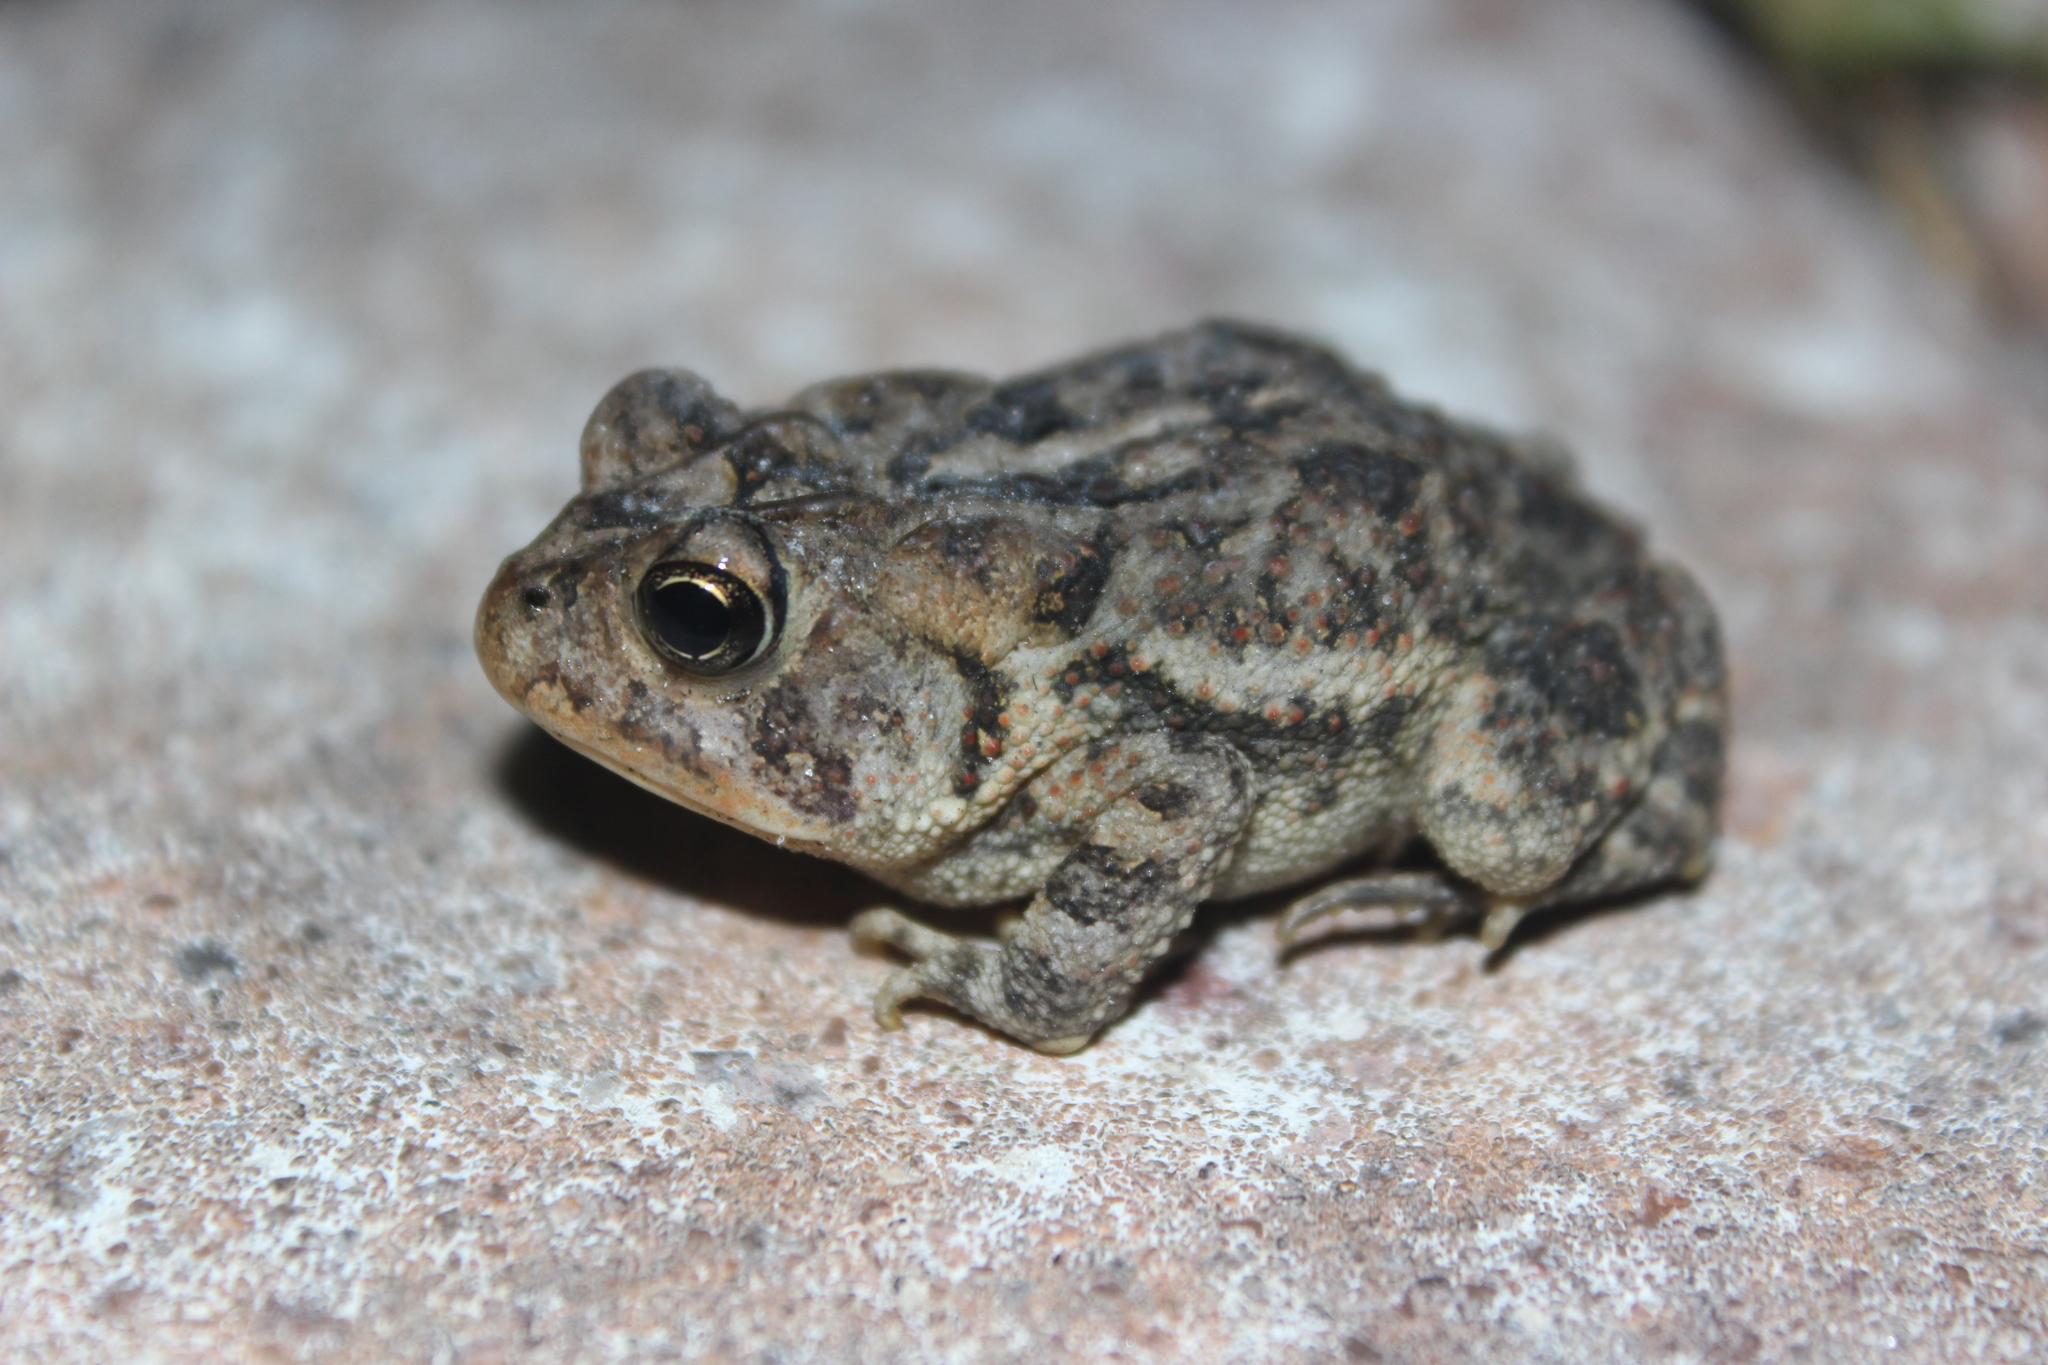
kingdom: Animalia
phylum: Chordata
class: Amphibia
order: Anura
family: Bufonidae
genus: Anaxyrus
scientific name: Anaxyrus terrestris
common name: Southern toad
